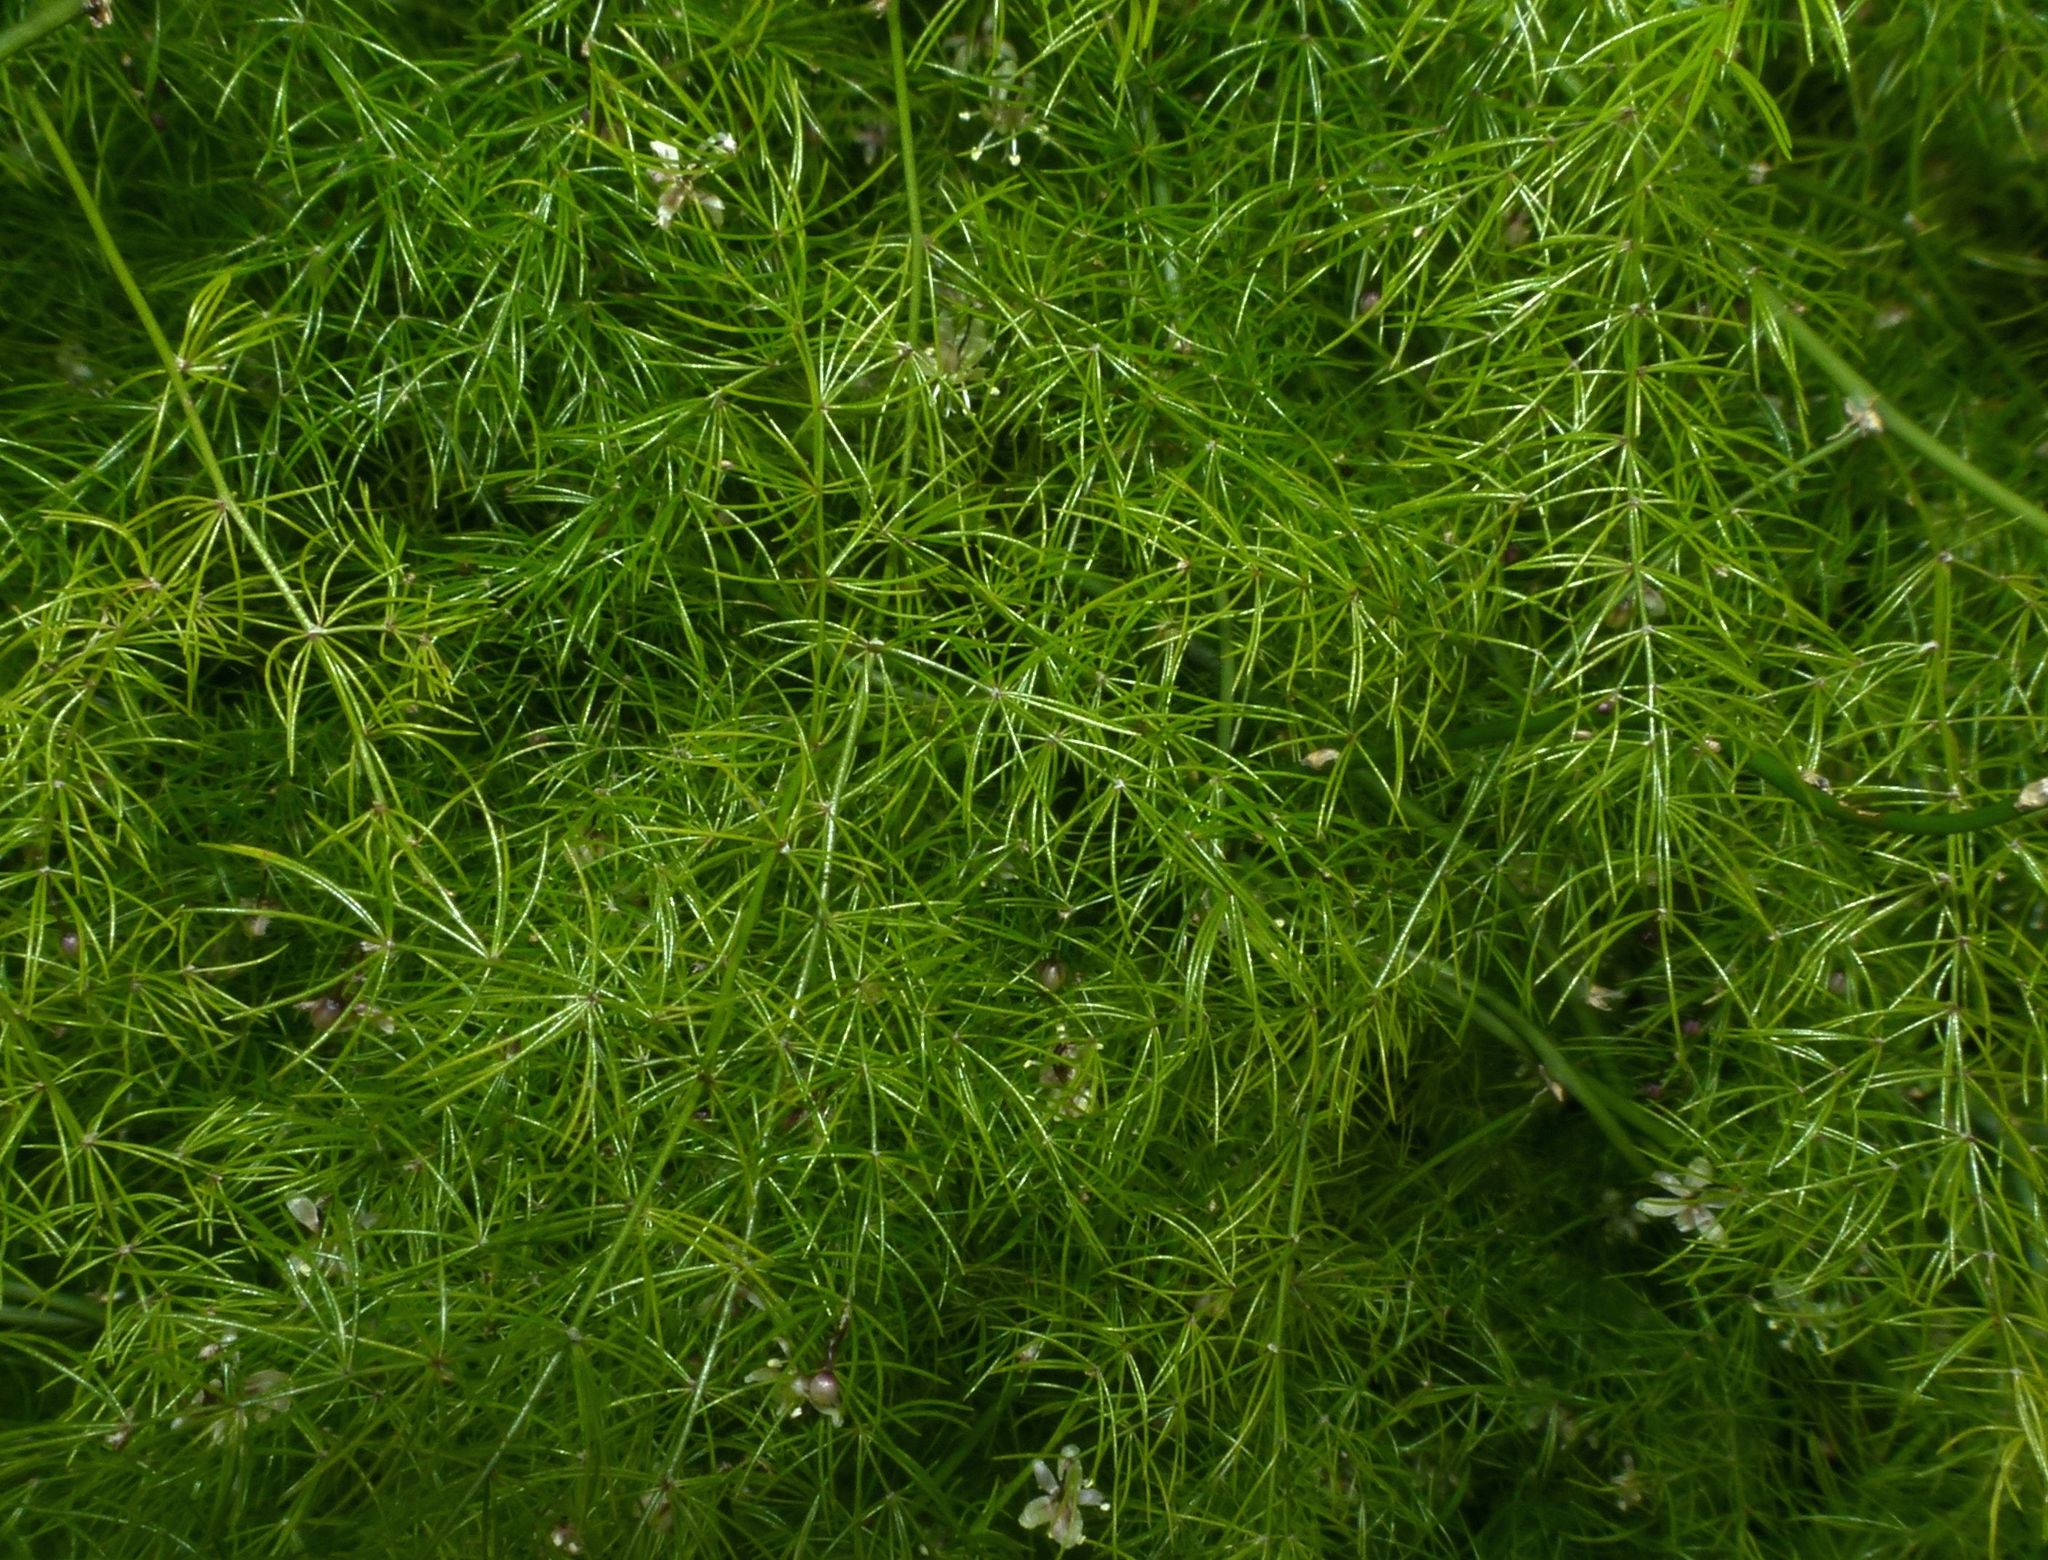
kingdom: Plantae
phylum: Tracheophyta
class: Liliopsida
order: Asparagales
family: Asparagaceae
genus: Asparagus
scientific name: Asparagus officinalis
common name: Garden asparagus
